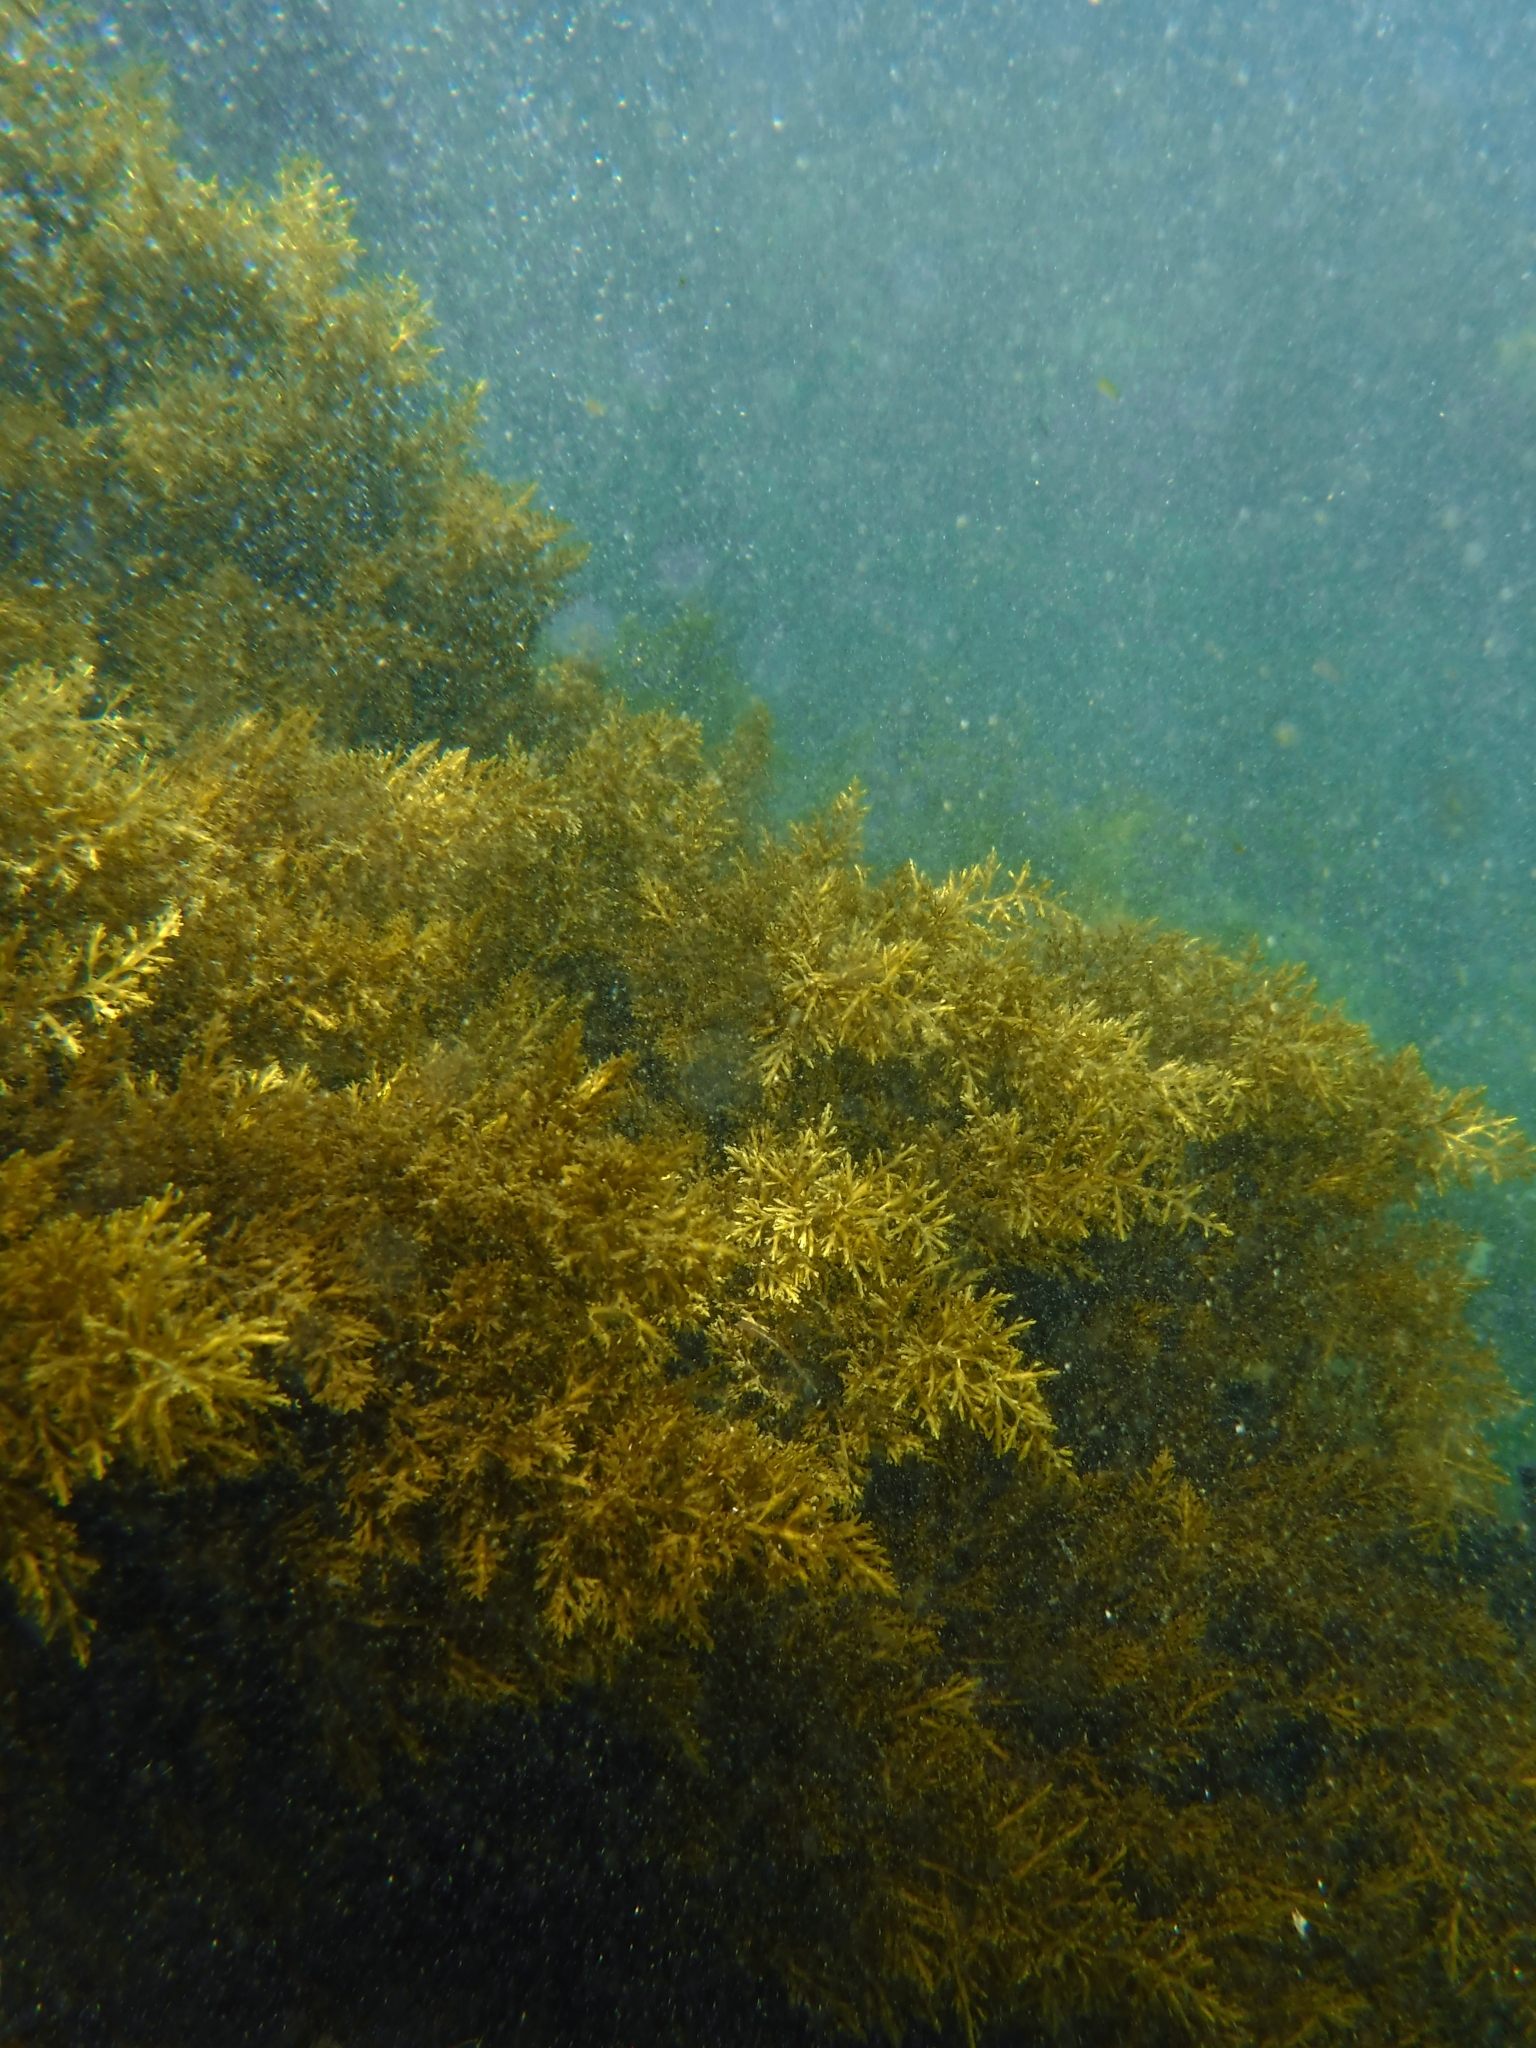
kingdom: Chromista
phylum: Ochrophyta
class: Phaeophyceae
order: Fucales
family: Sargassaceae
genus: Cystoseira
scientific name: Cystoseira compressa
